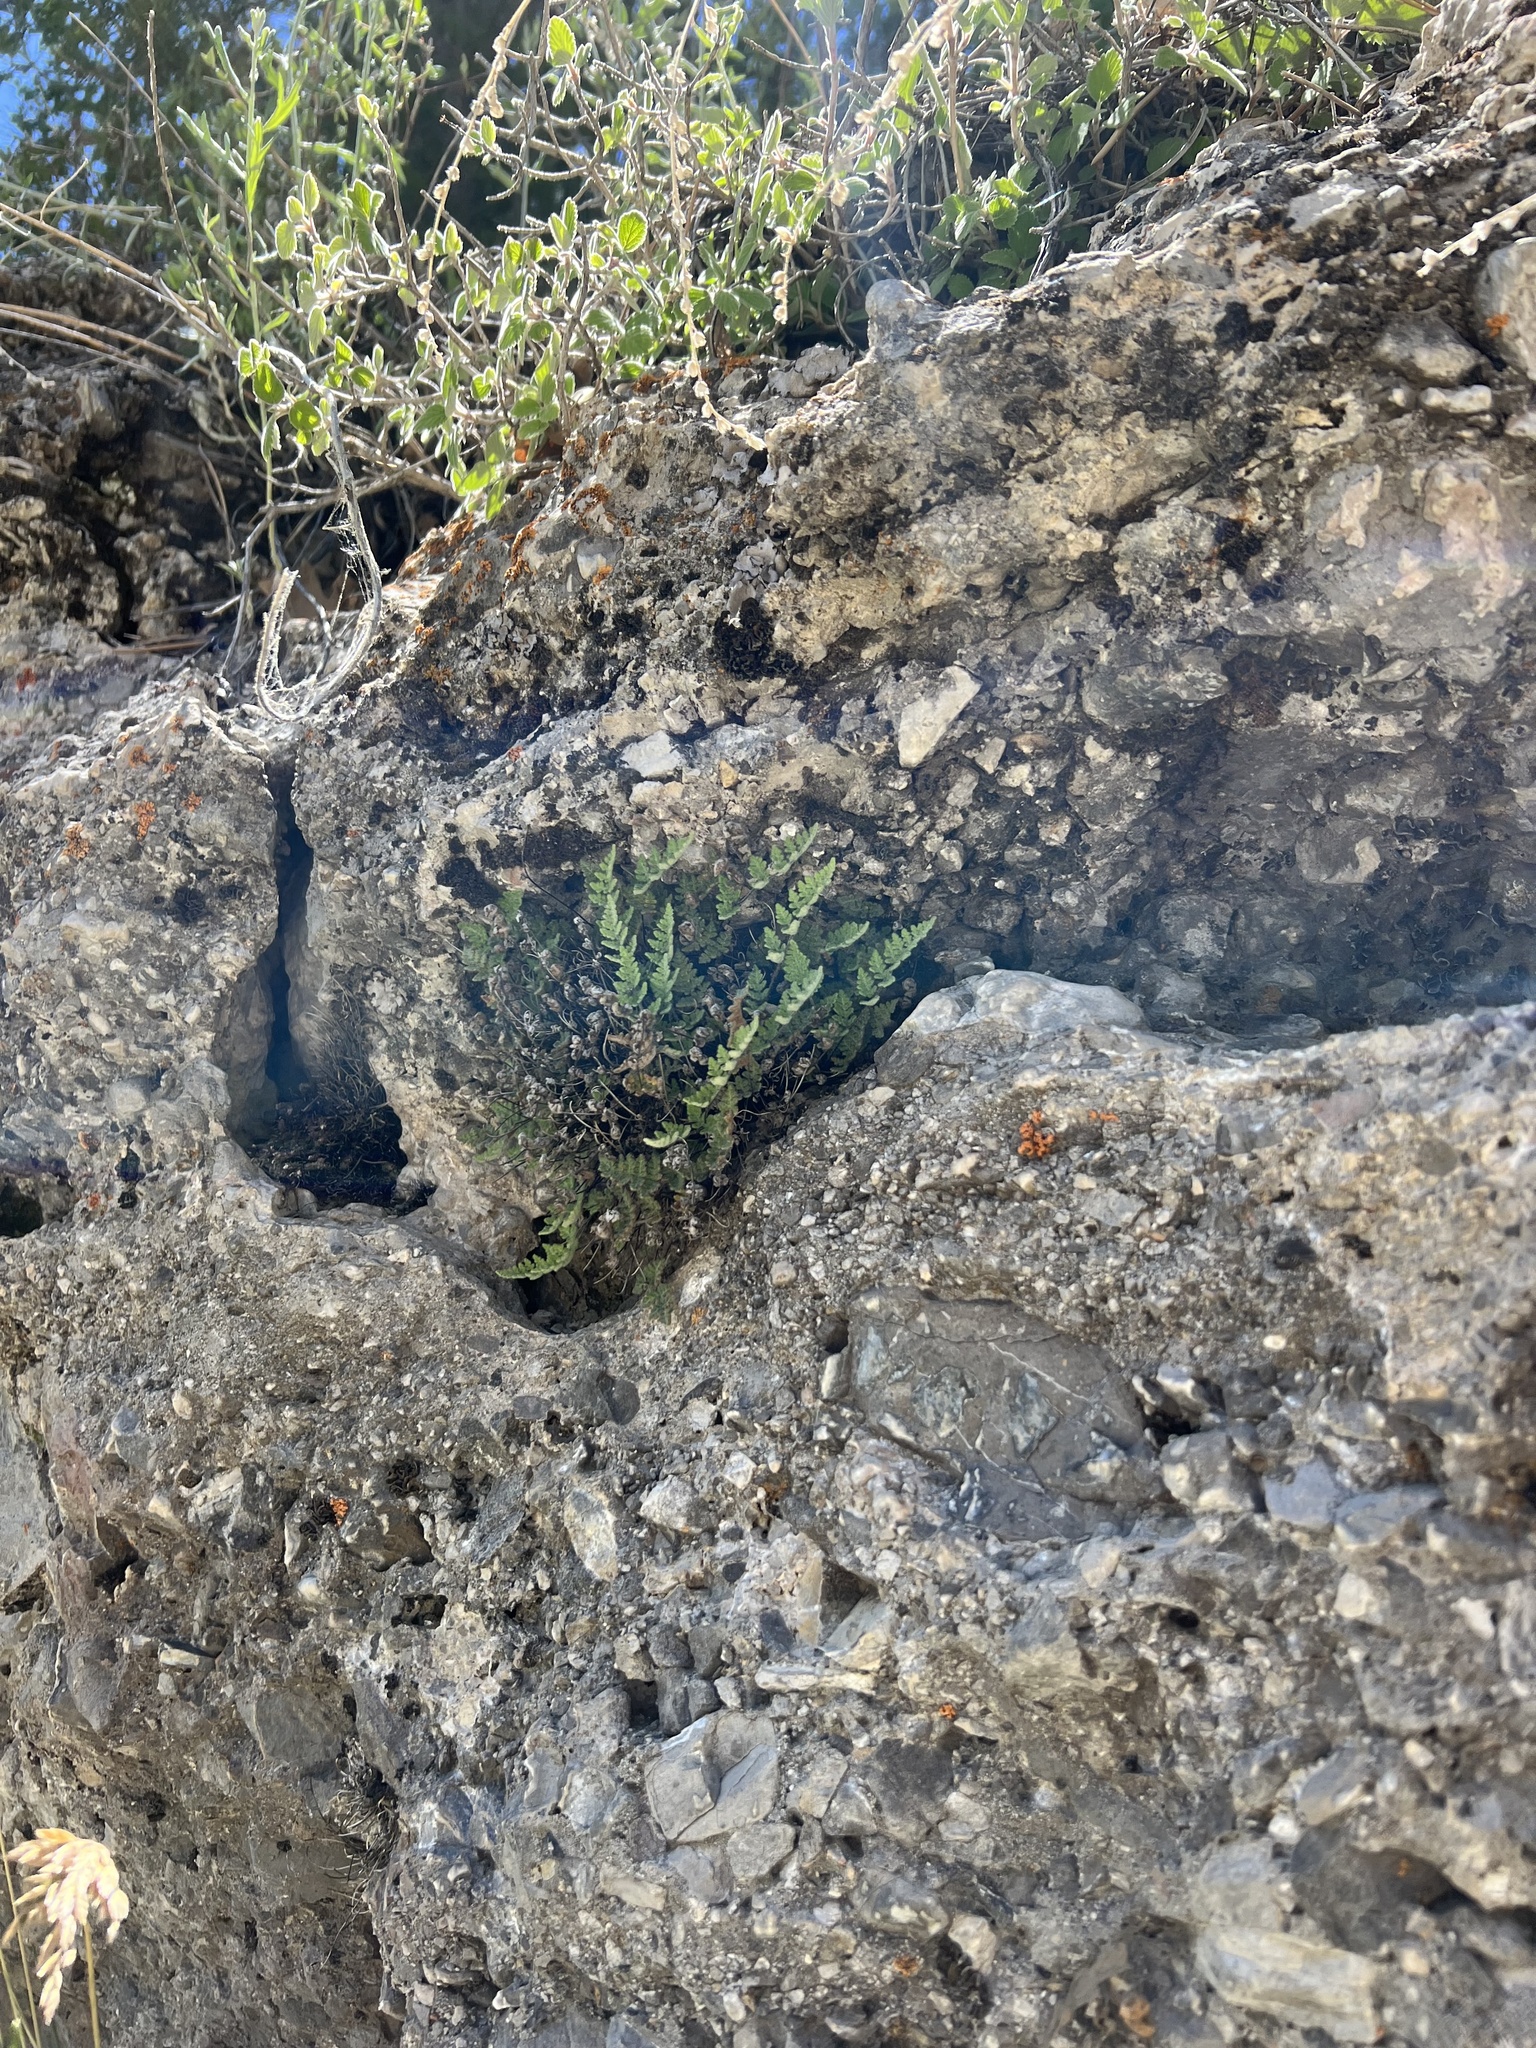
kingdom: Plantae
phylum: Tracheophyta
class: Polypodiopsida
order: Polypodiales
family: Pteridaceae
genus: Myriopteris
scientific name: Myriopteris gracilis
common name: Fee's lip fern
